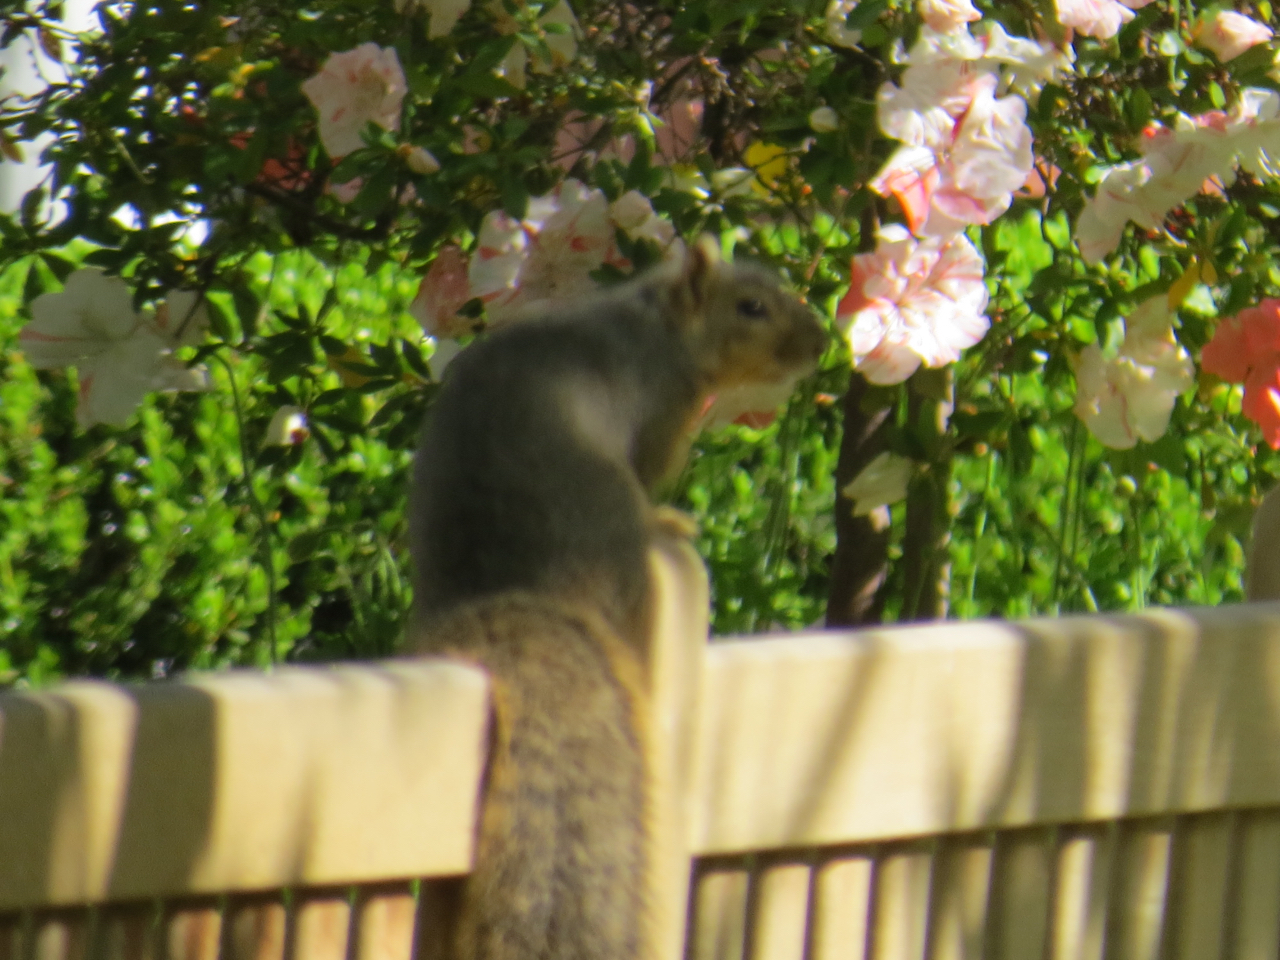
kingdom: Animalia
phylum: Chordata
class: Mammalia
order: Rodentia
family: Sciuridae
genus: Sciurus
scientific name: Sciurus niger
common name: Fox squirrel
